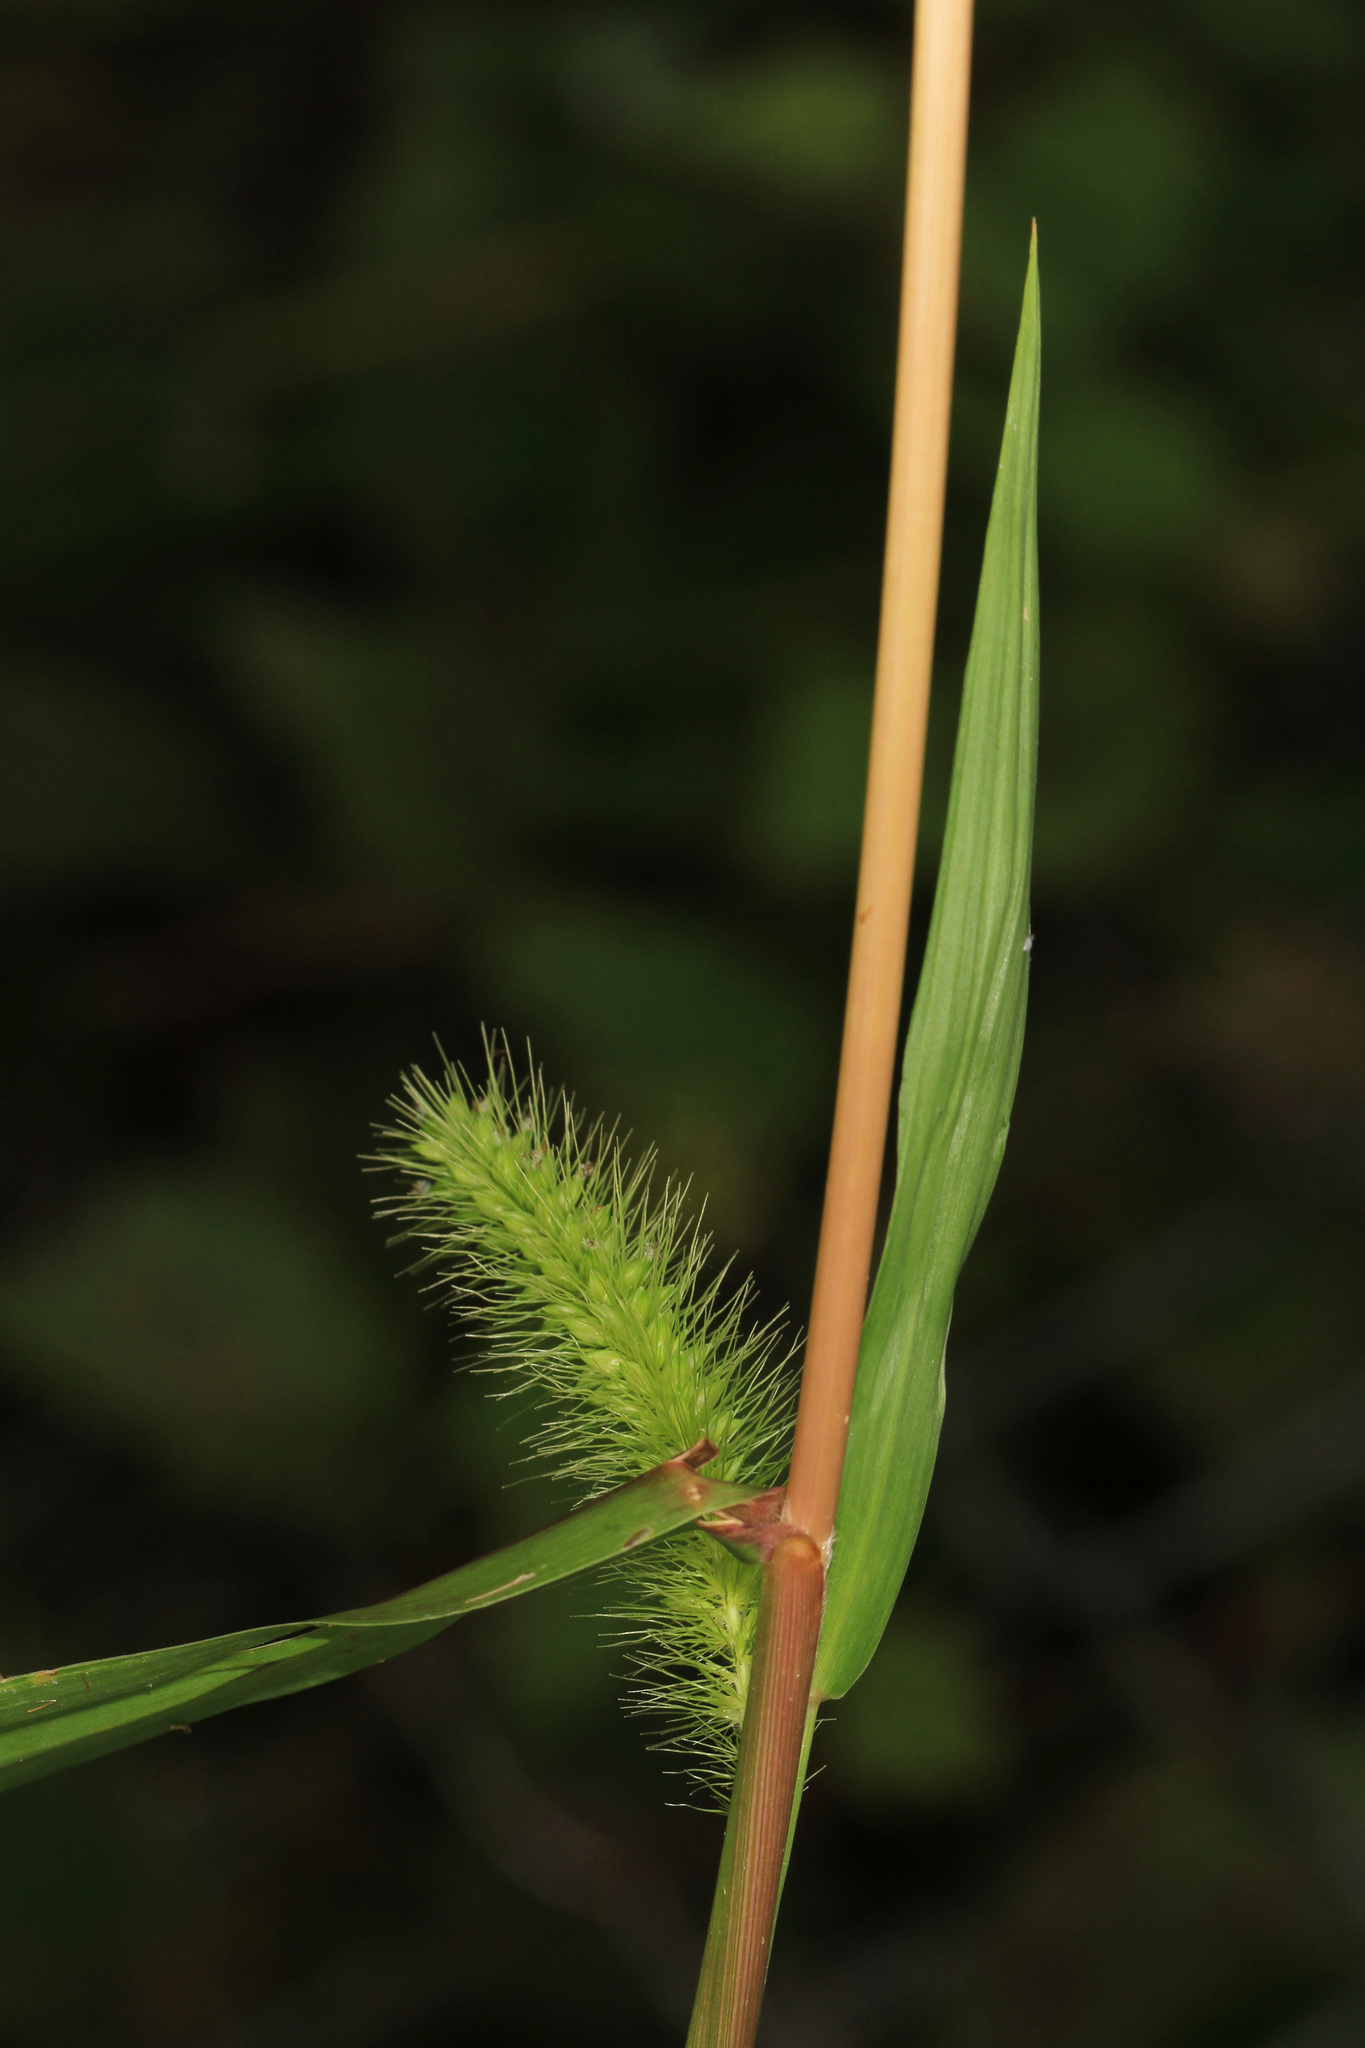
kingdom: Plantae
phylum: Tracheophyta
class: Liliopsida
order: Poales
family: Poaceae
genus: Setaria
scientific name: Setaria faberi
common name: Nodding bristle-grass
